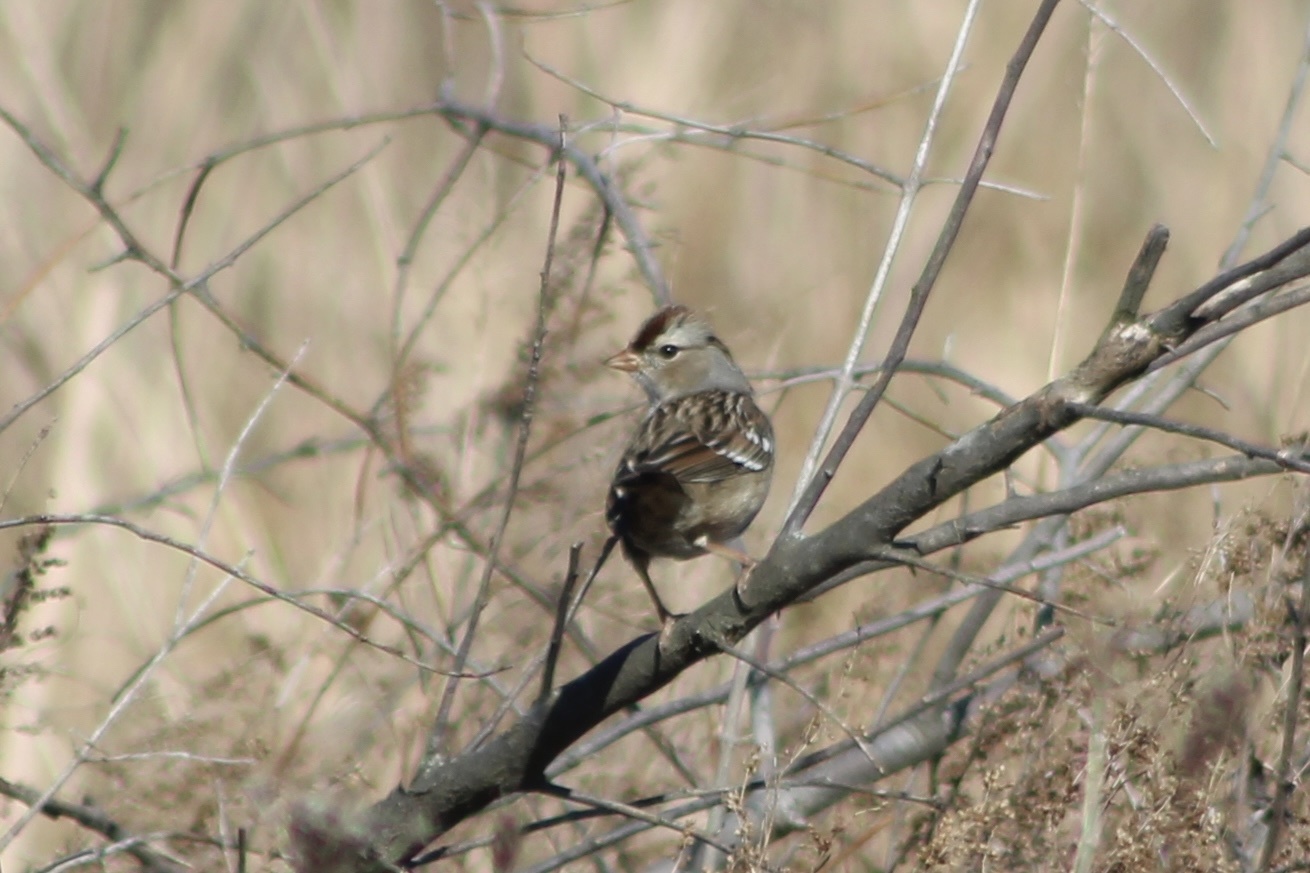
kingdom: Animalia
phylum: Chordata
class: Aves
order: Passeriformes
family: Passerellidae
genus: Zonotrichia
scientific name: Zonotrichia leucophrys
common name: White-crowned sparrow
